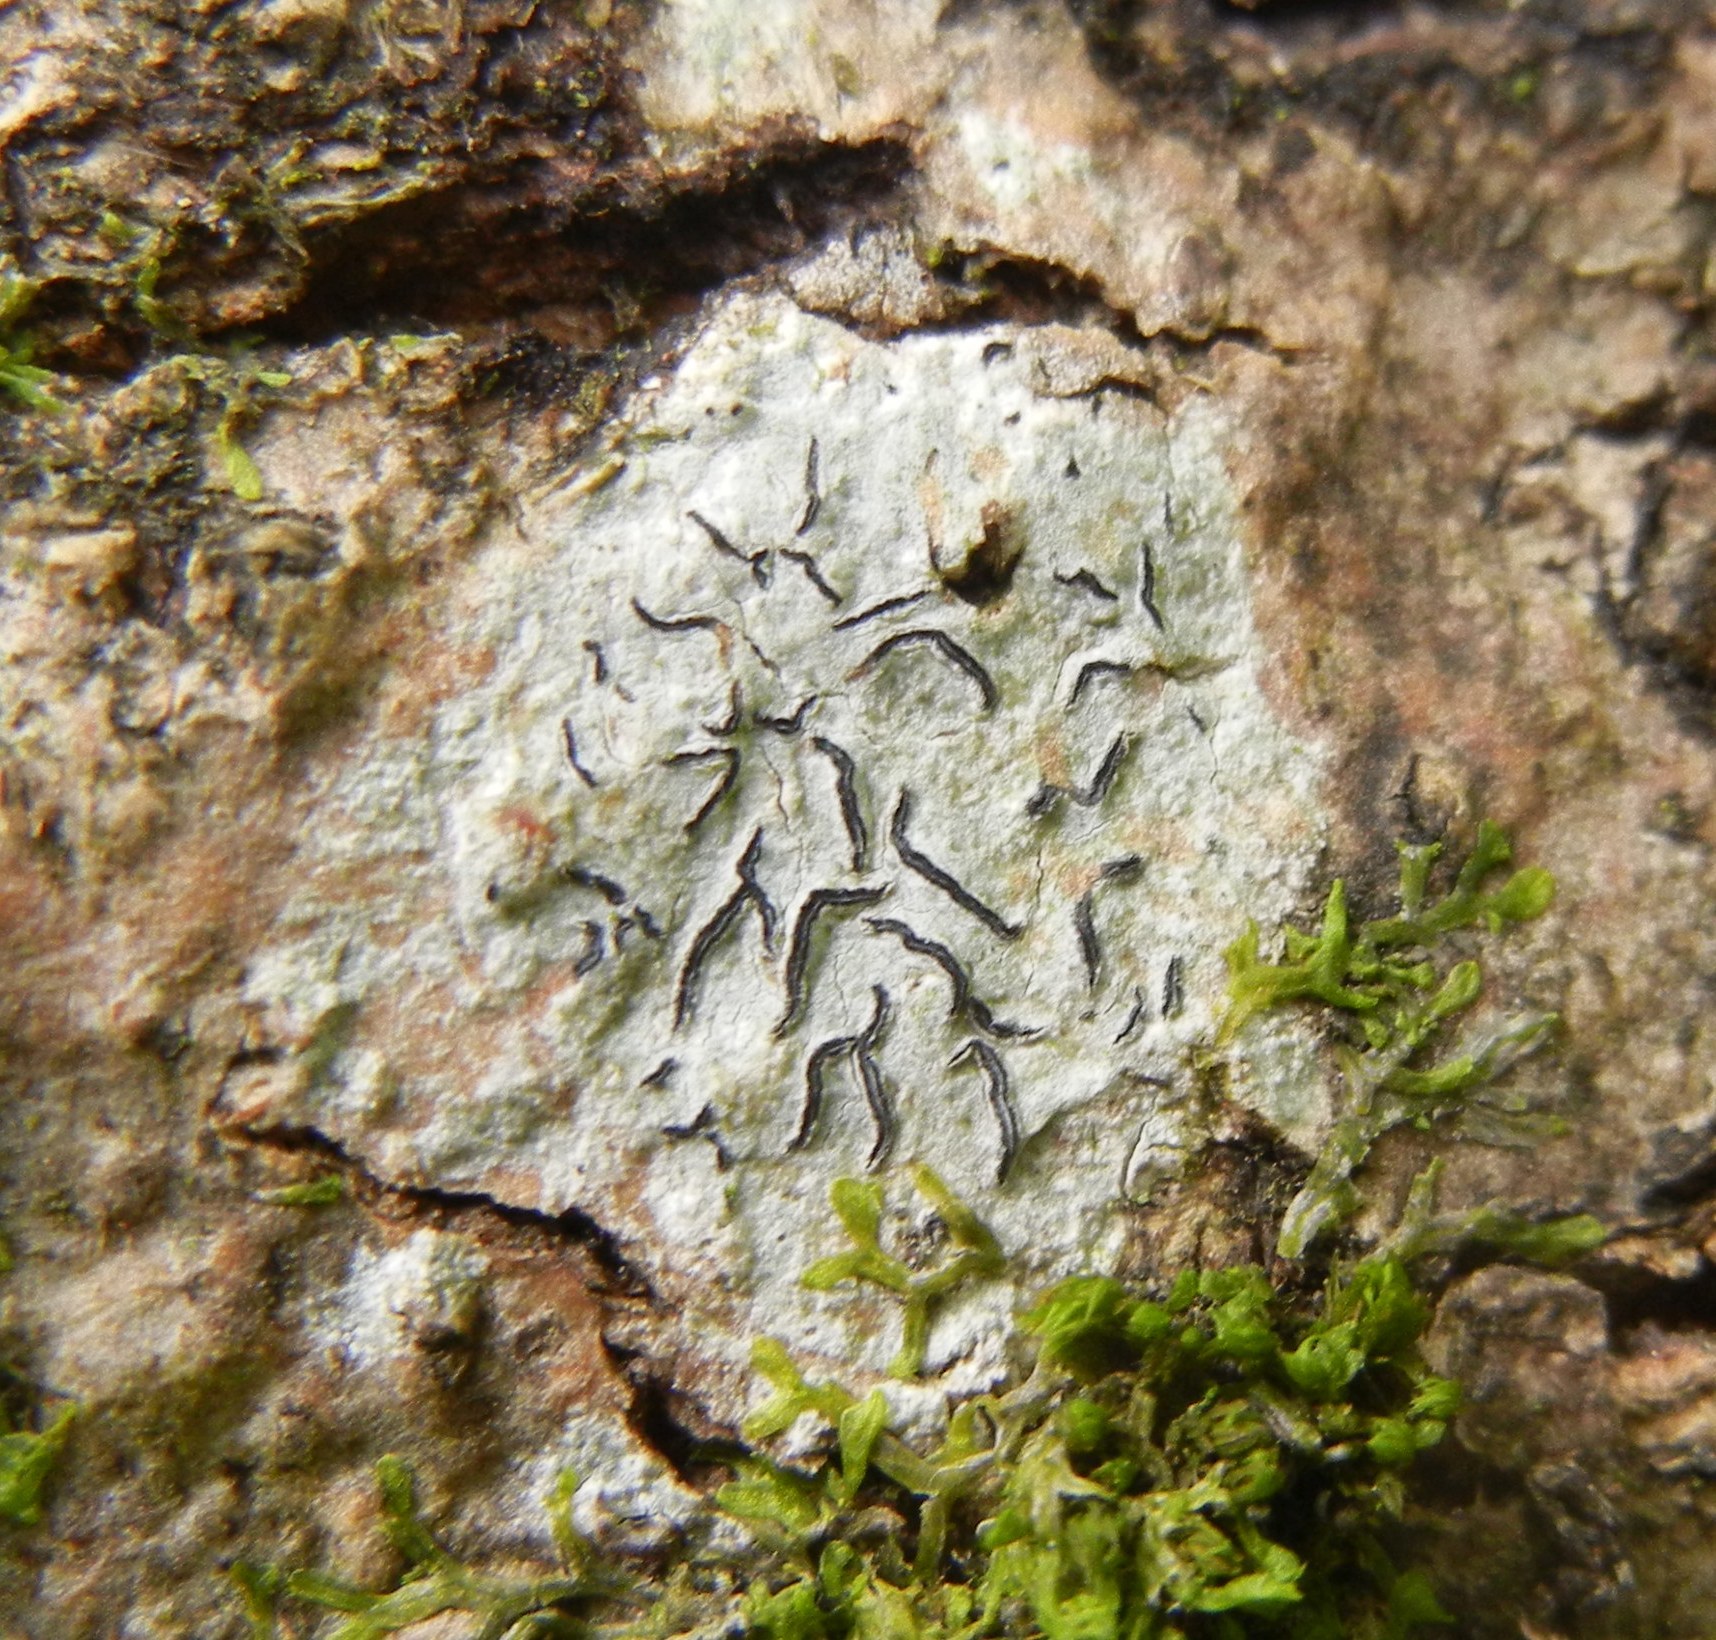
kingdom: Fungi
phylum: Ascomycota
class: Lecanoromycetes
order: Ostropales
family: Graphidaceae
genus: Graphis
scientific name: Graphis scripta
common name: Script lichen
